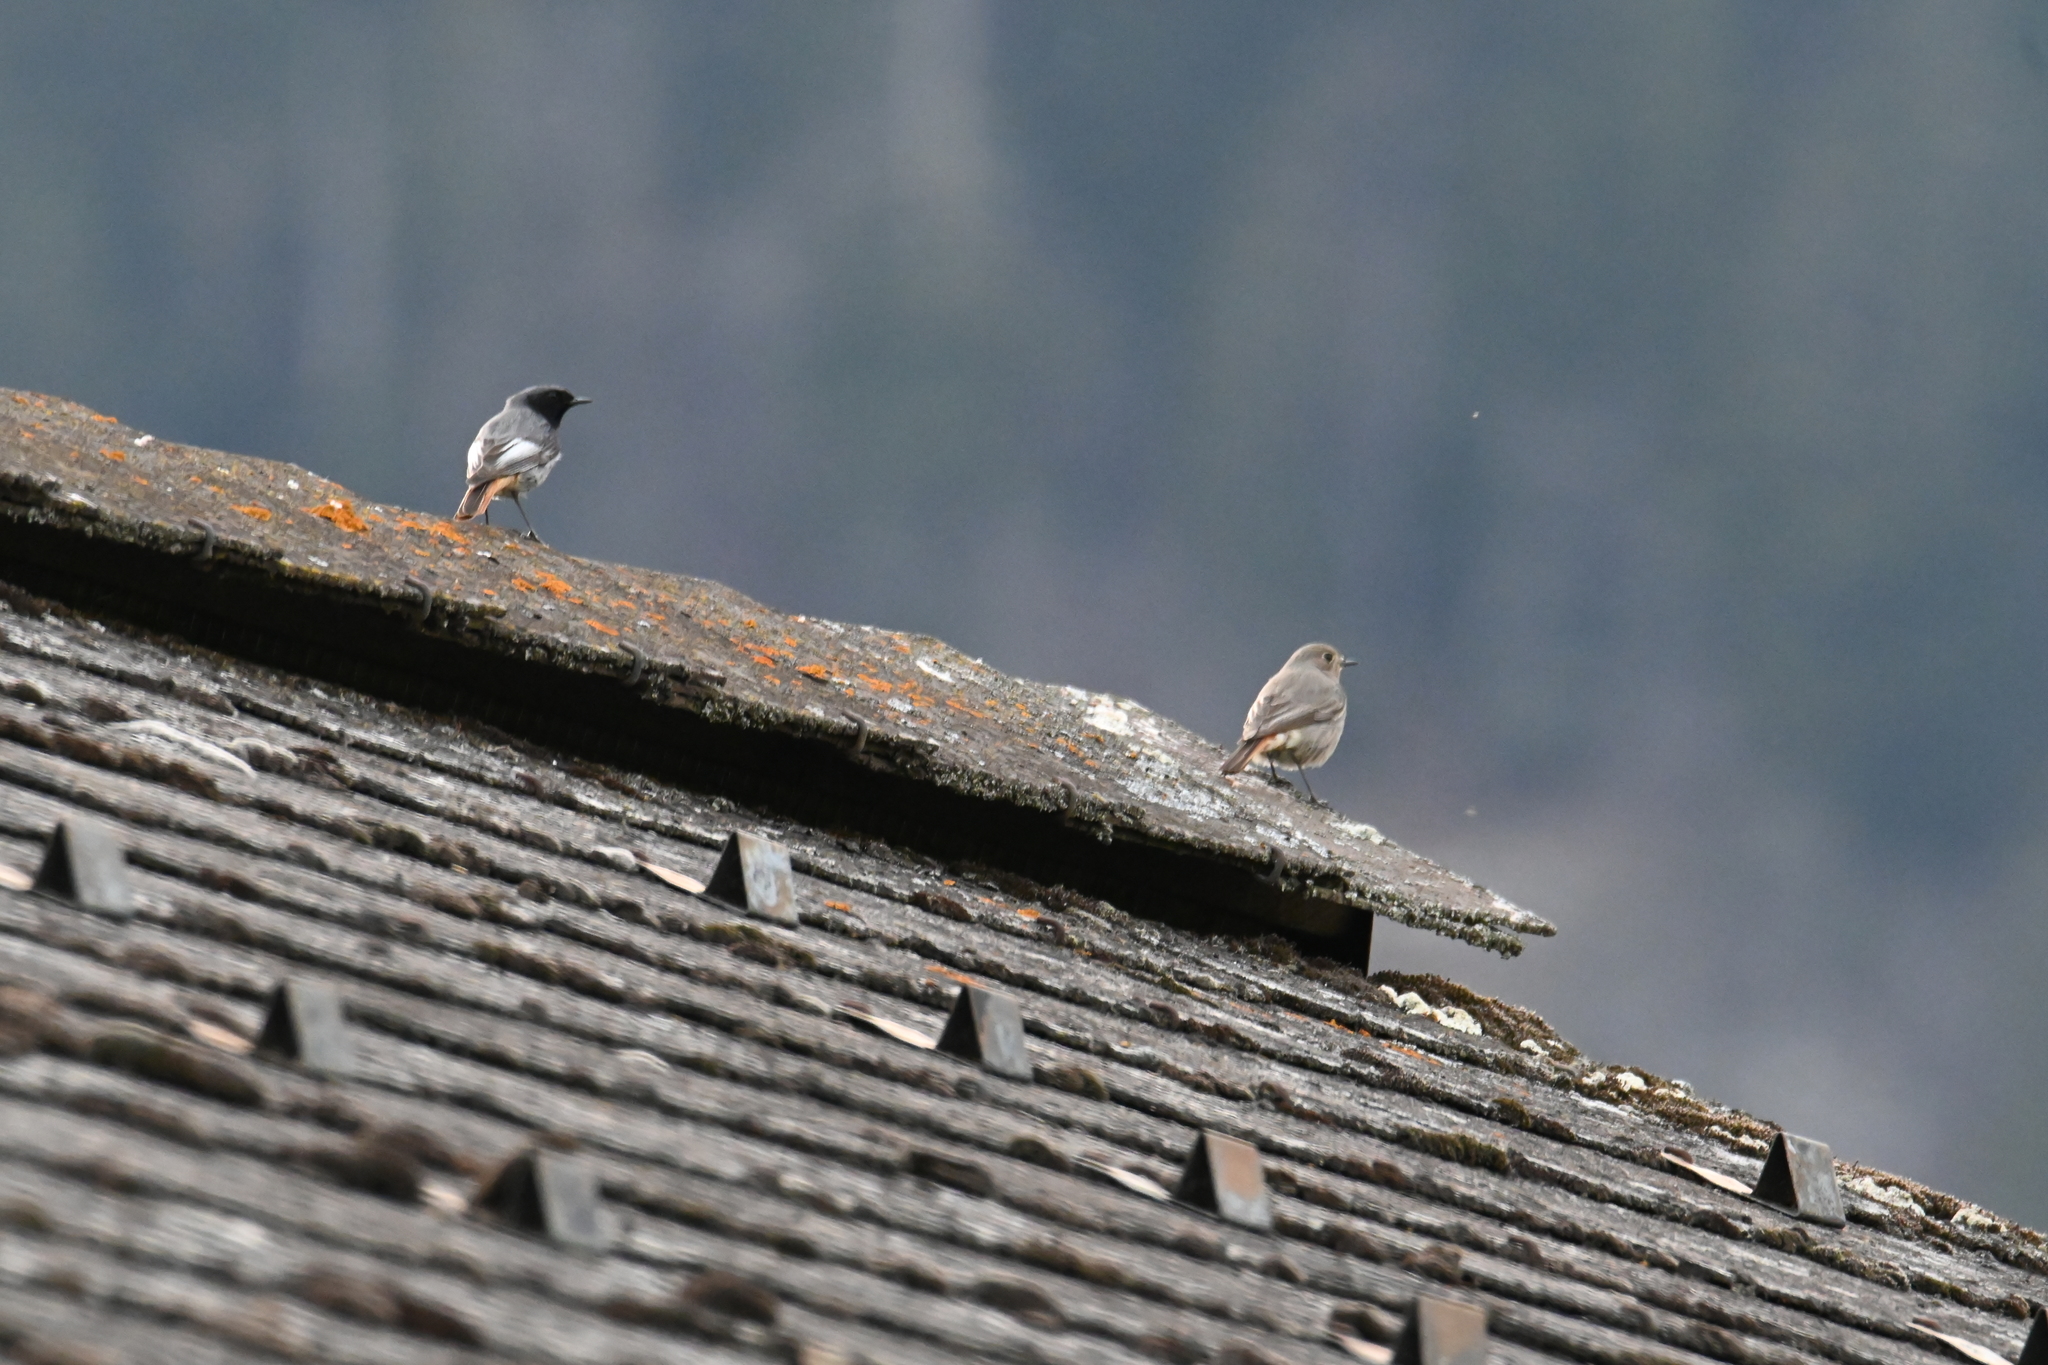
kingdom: Animalia
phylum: Chordata
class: Aves
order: Passeriformes
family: Muscicapidae
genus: Phoenicurus
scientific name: Phoenicurus ochruros
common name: Black redstart
